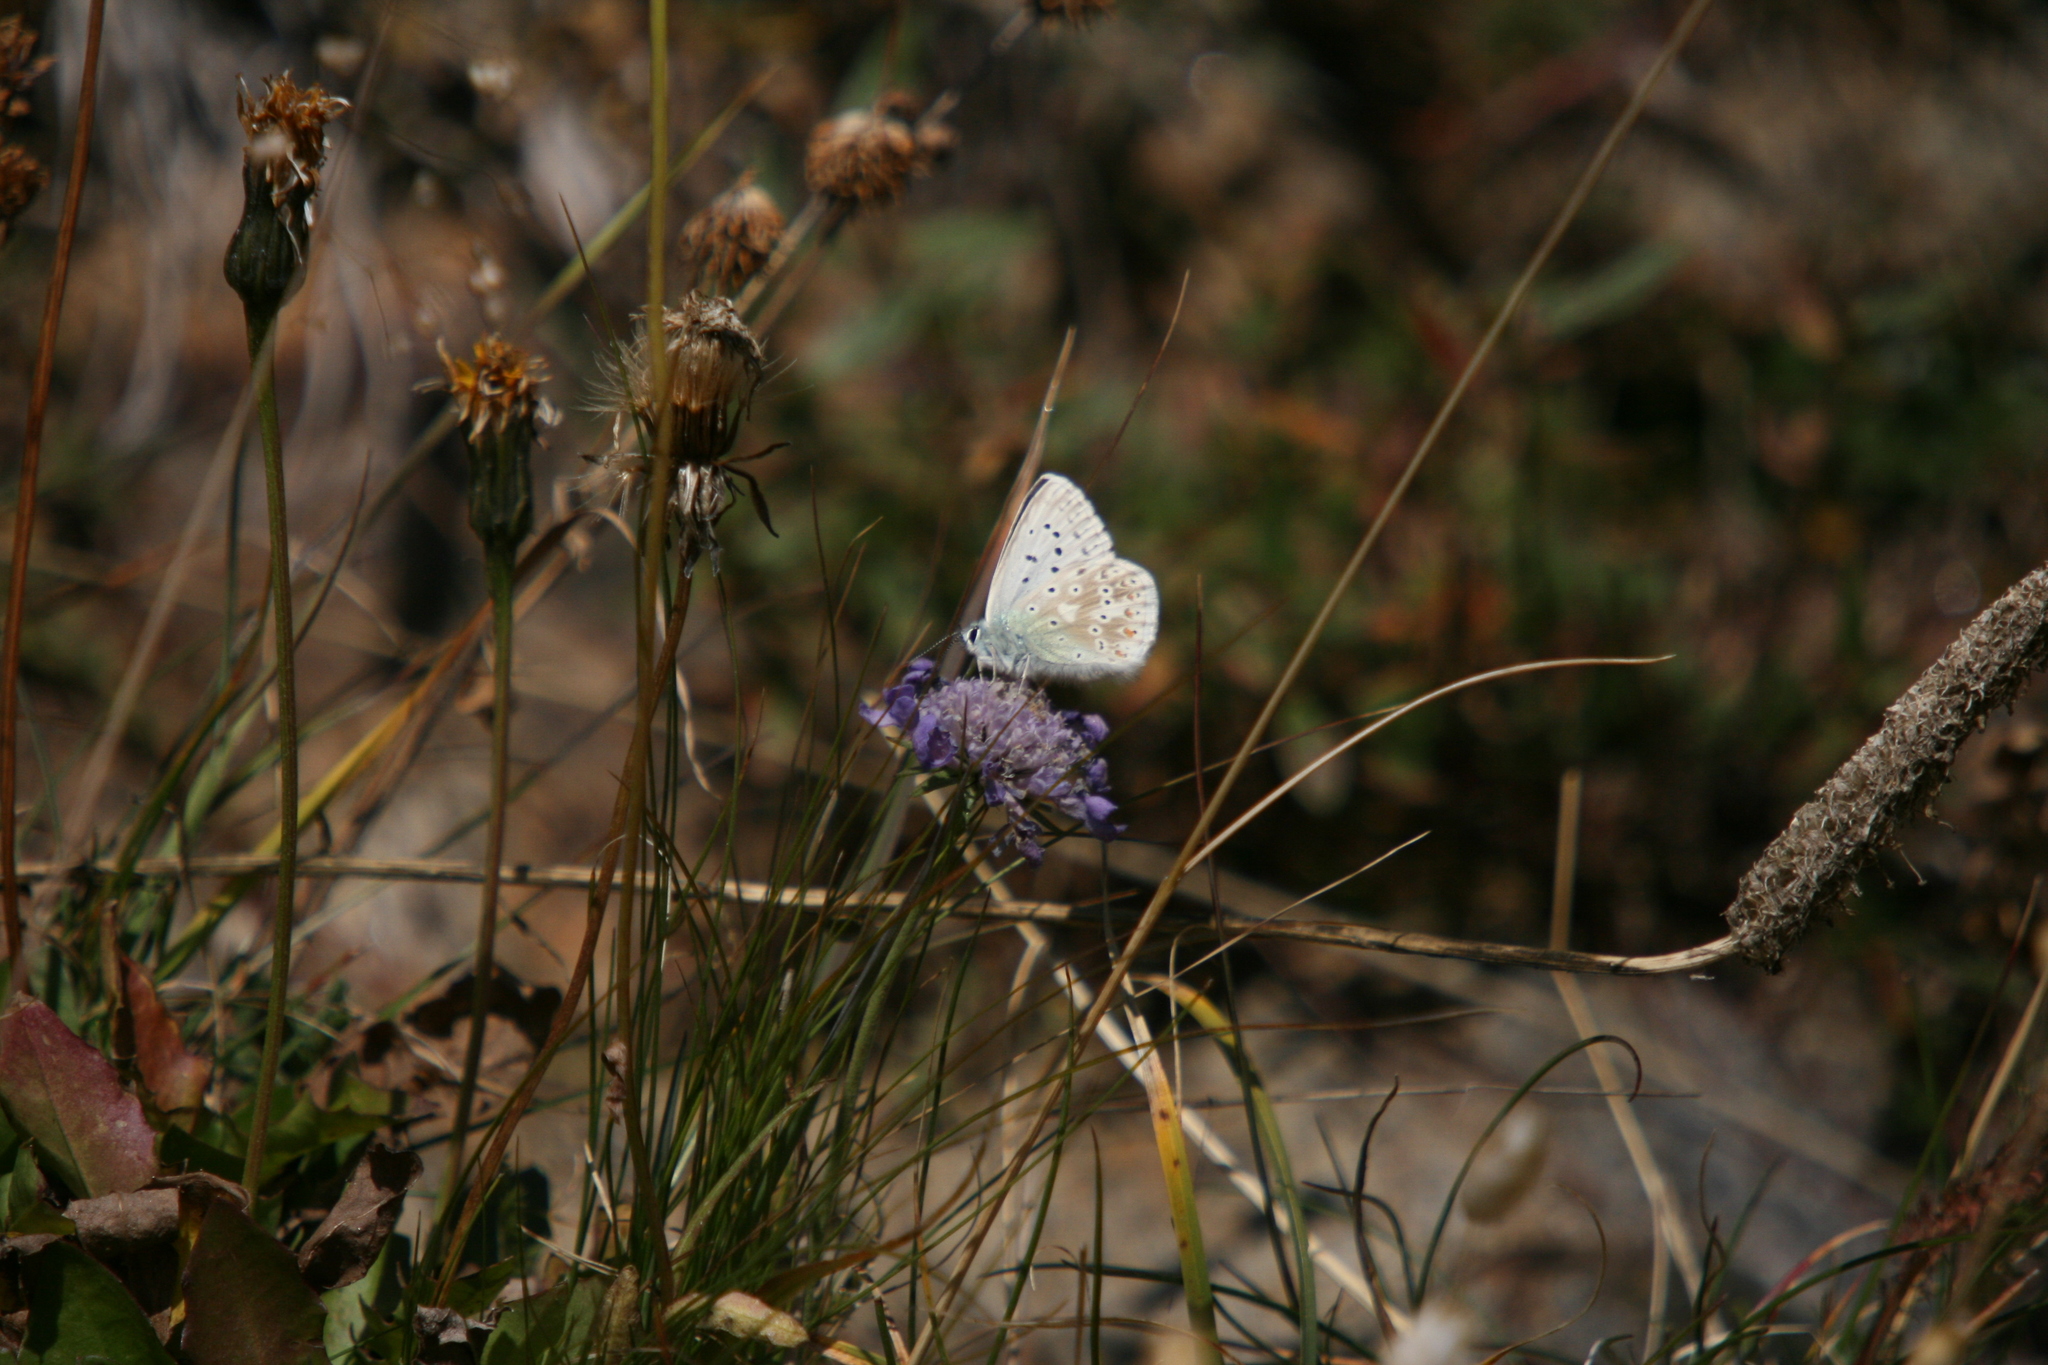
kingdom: Animalia
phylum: Arthropoda
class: Insecta
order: Lepidoptera
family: Lycaenidae
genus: Lysandra
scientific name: Lysandra coridon
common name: Chalkhill blue
